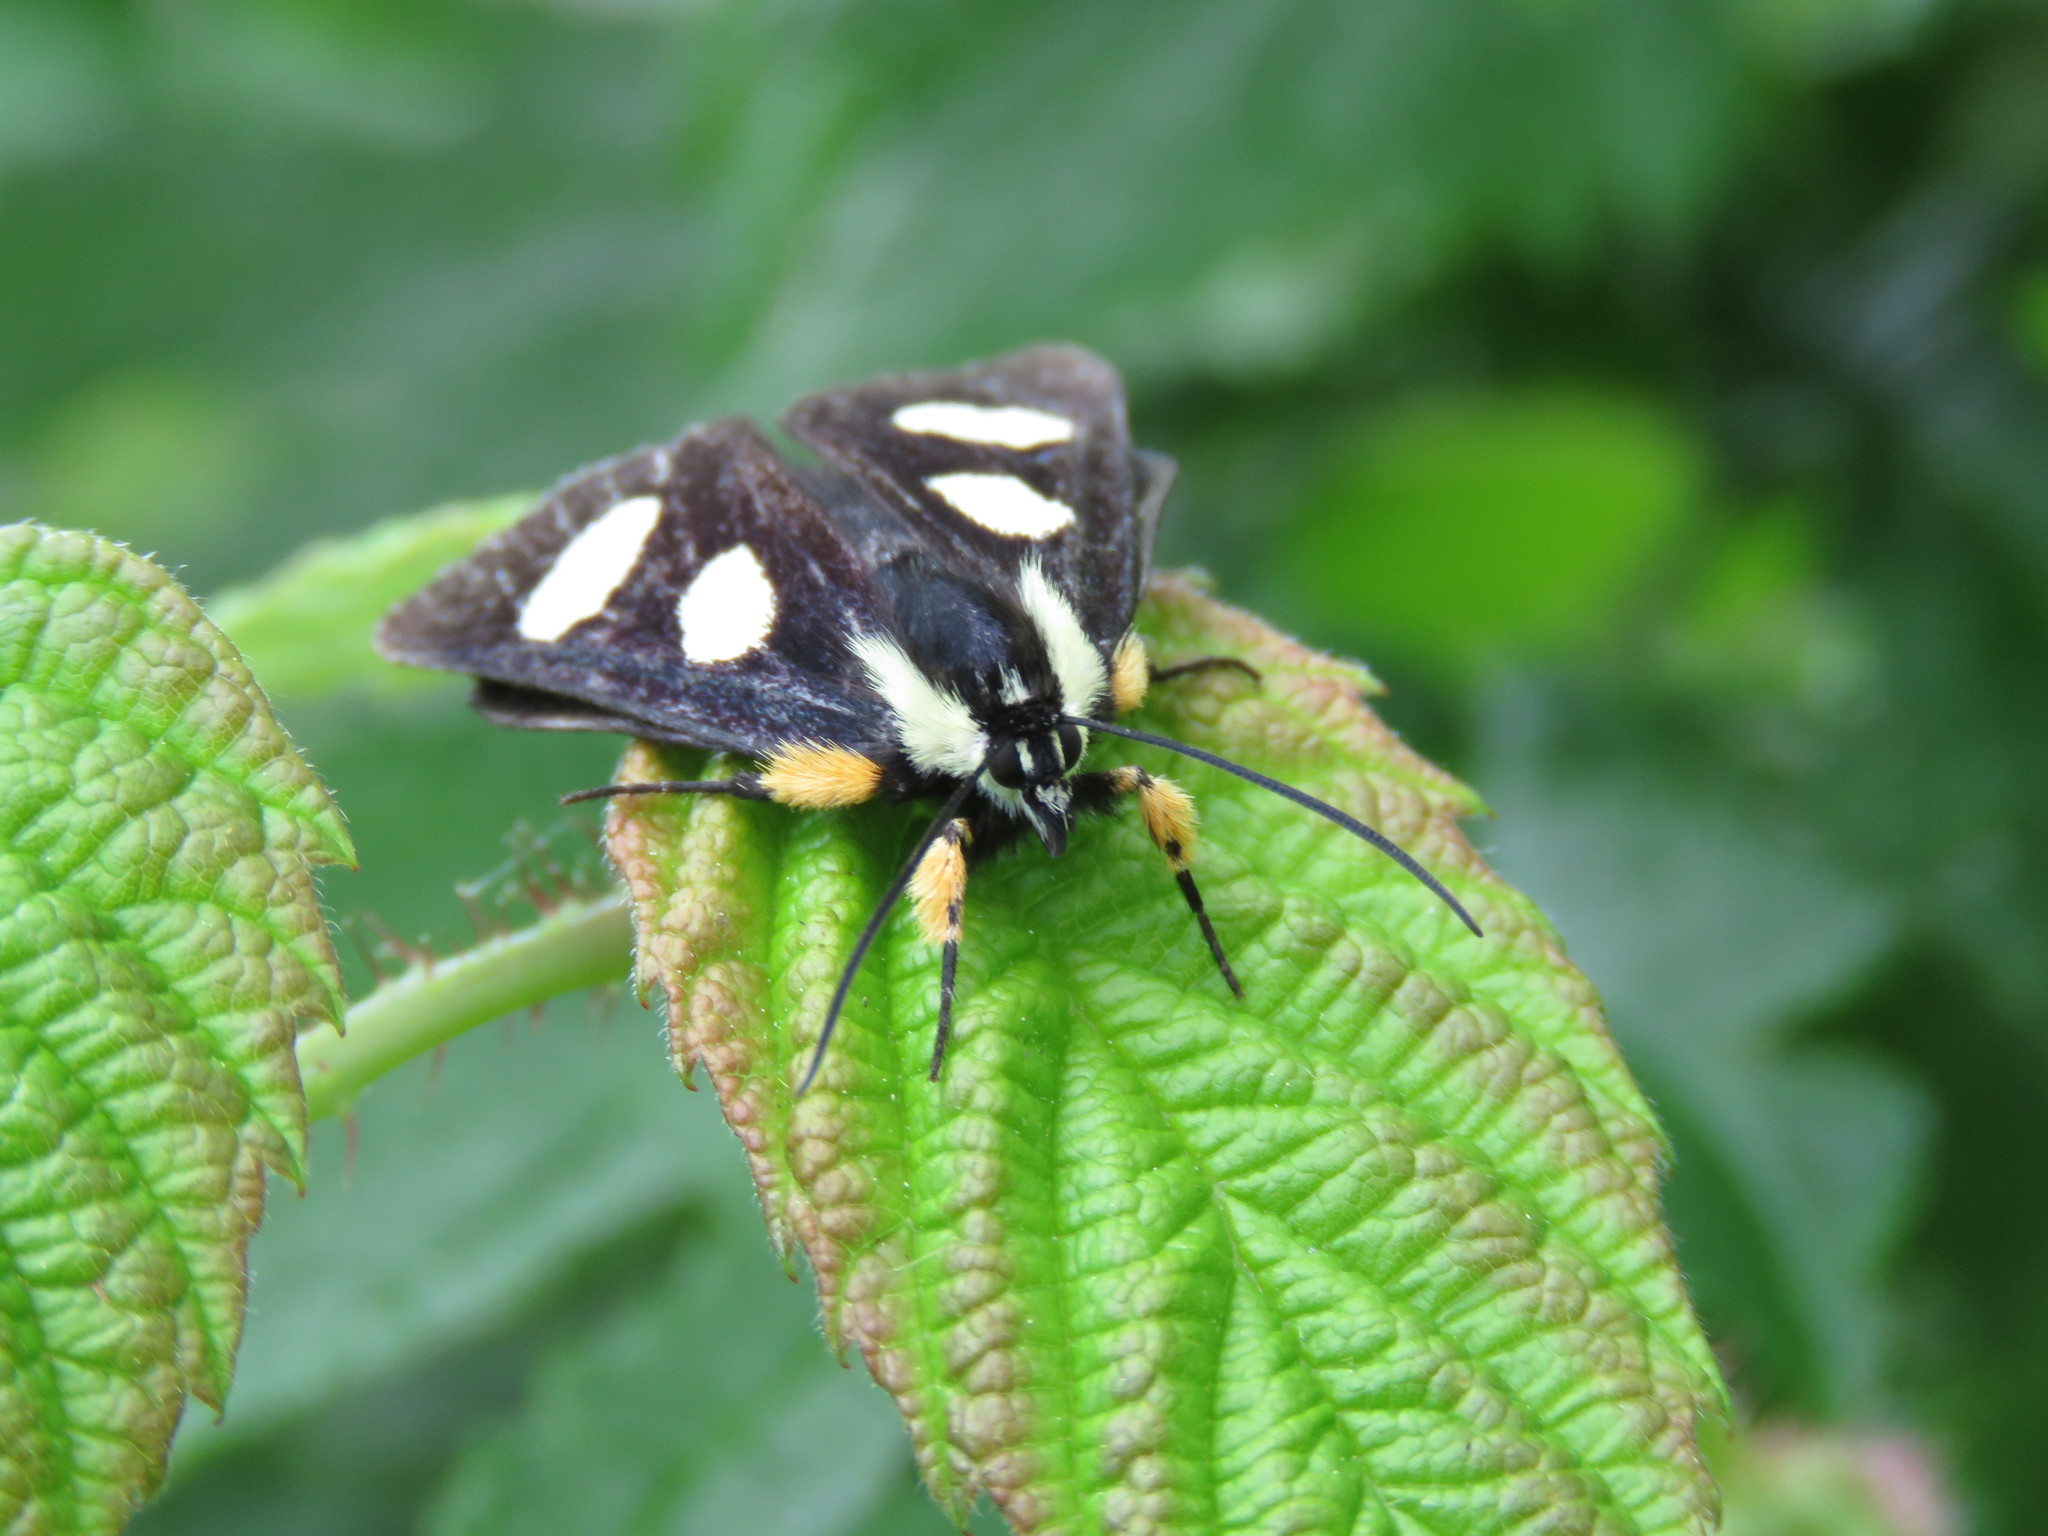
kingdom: Animalia
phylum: Arthropoda
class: Insecta
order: Lepidoptera
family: Noctuidae
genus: Alypia
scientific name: Alypia octomaculata
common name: Eight-spotted forester
